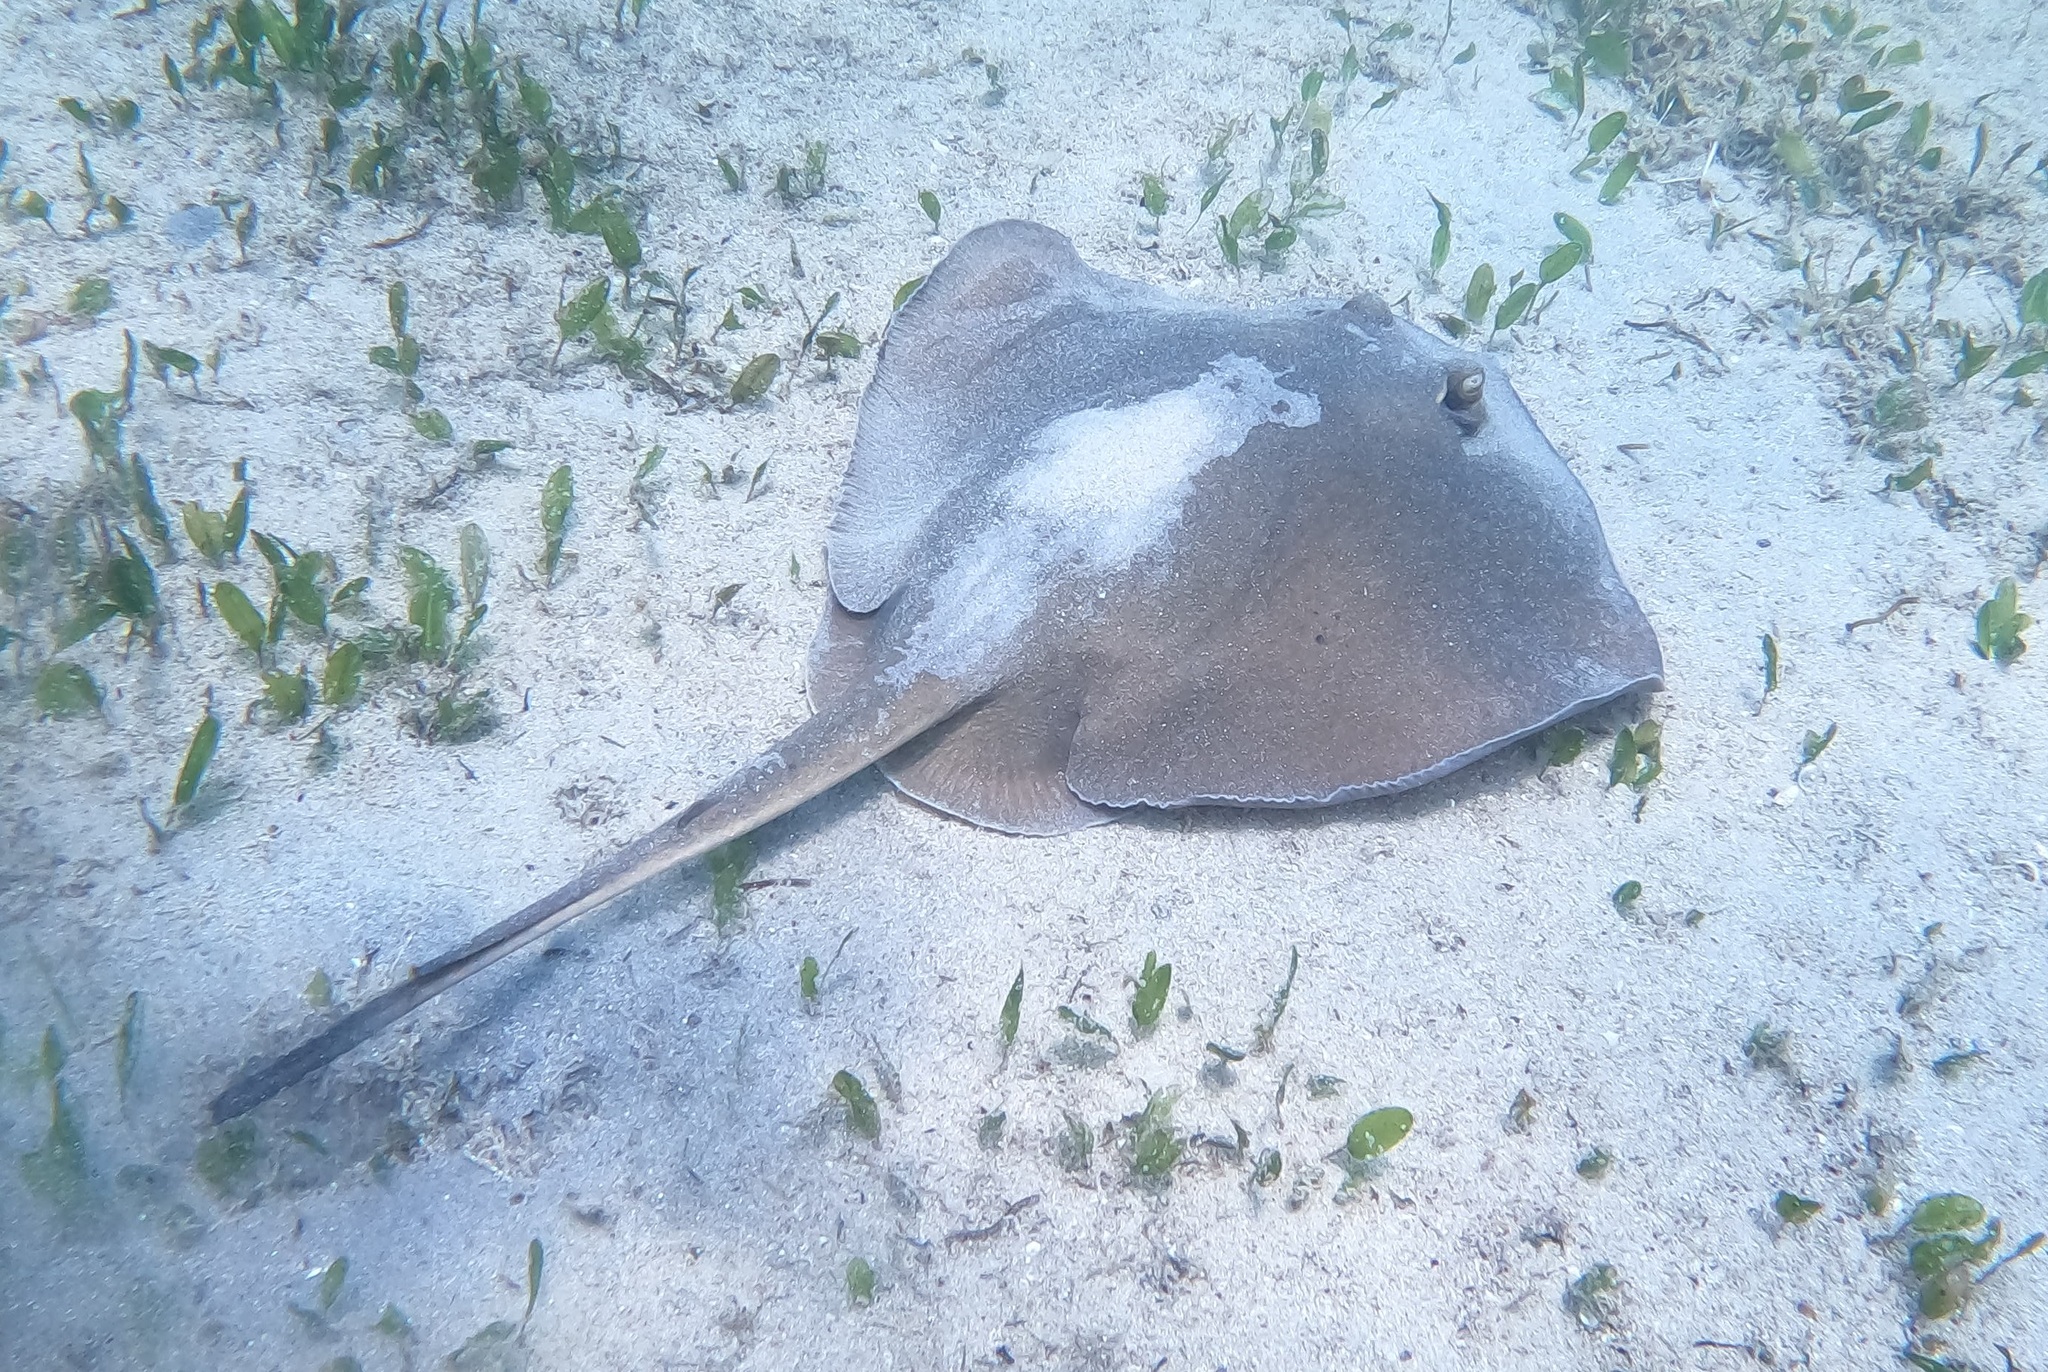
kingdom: Animalia
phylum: Chordata
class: Elasmobranchii
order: Myliobatiformes
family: Urolophidae
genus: Trygonoptera
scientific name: Trygonoptera testacea
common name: Common stingaree
